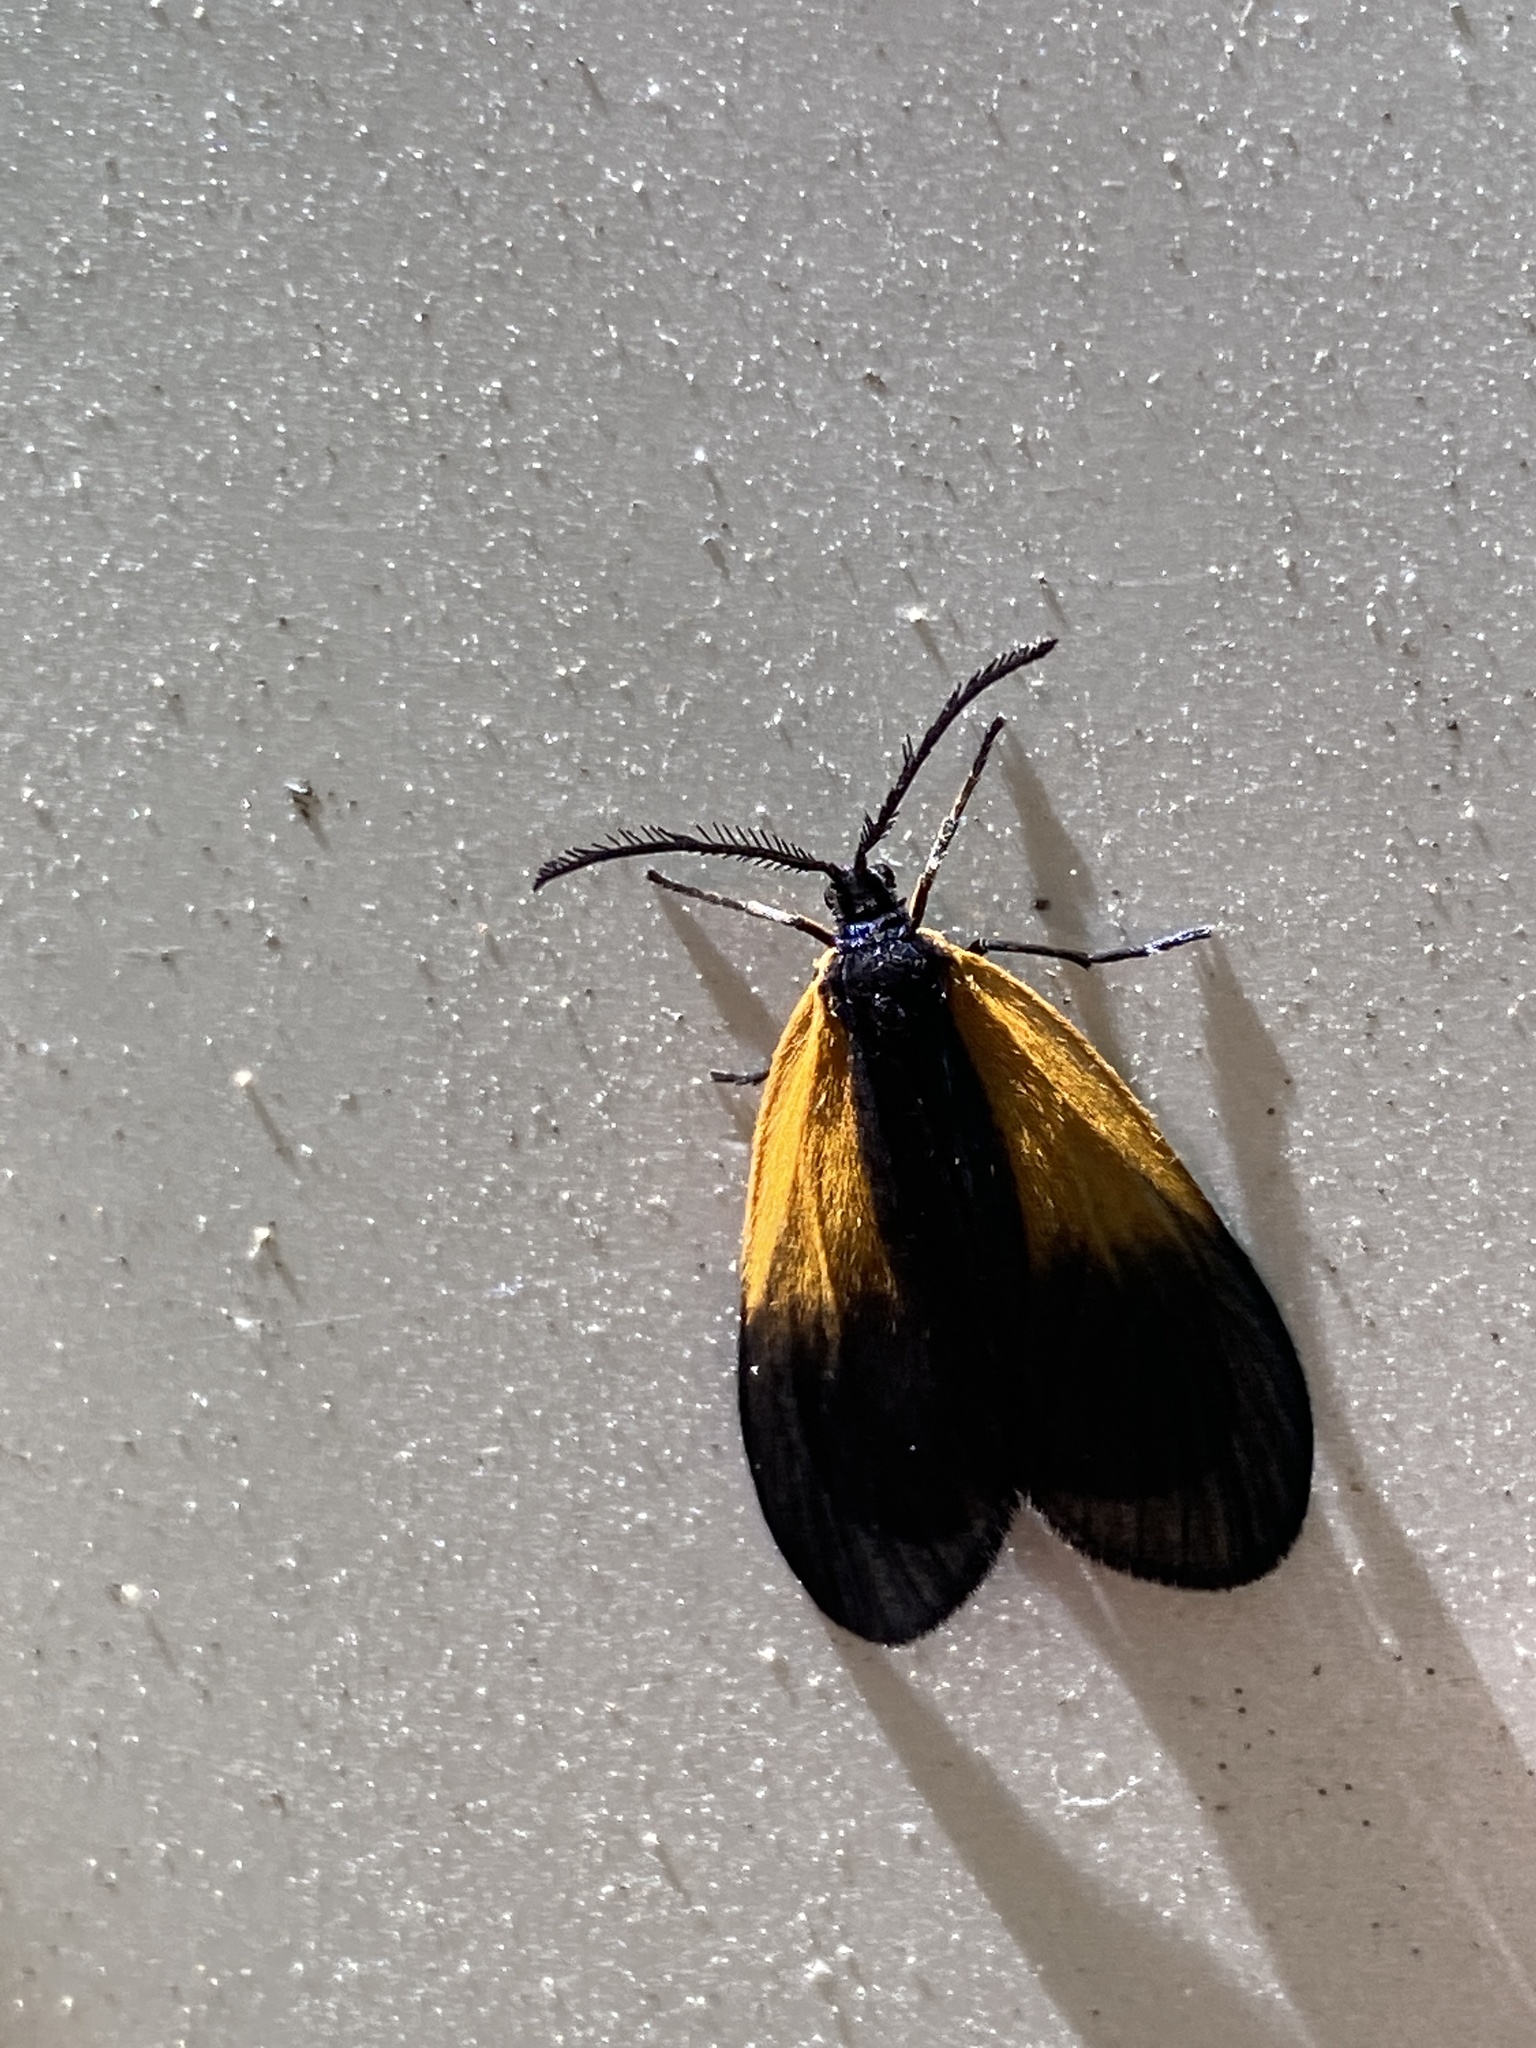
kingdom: Animalia
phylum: Arthropoda
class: Insecta
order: Lepidoptera
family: Zygaenidae
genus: Malthaca
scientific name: Malthaca dimidiata
